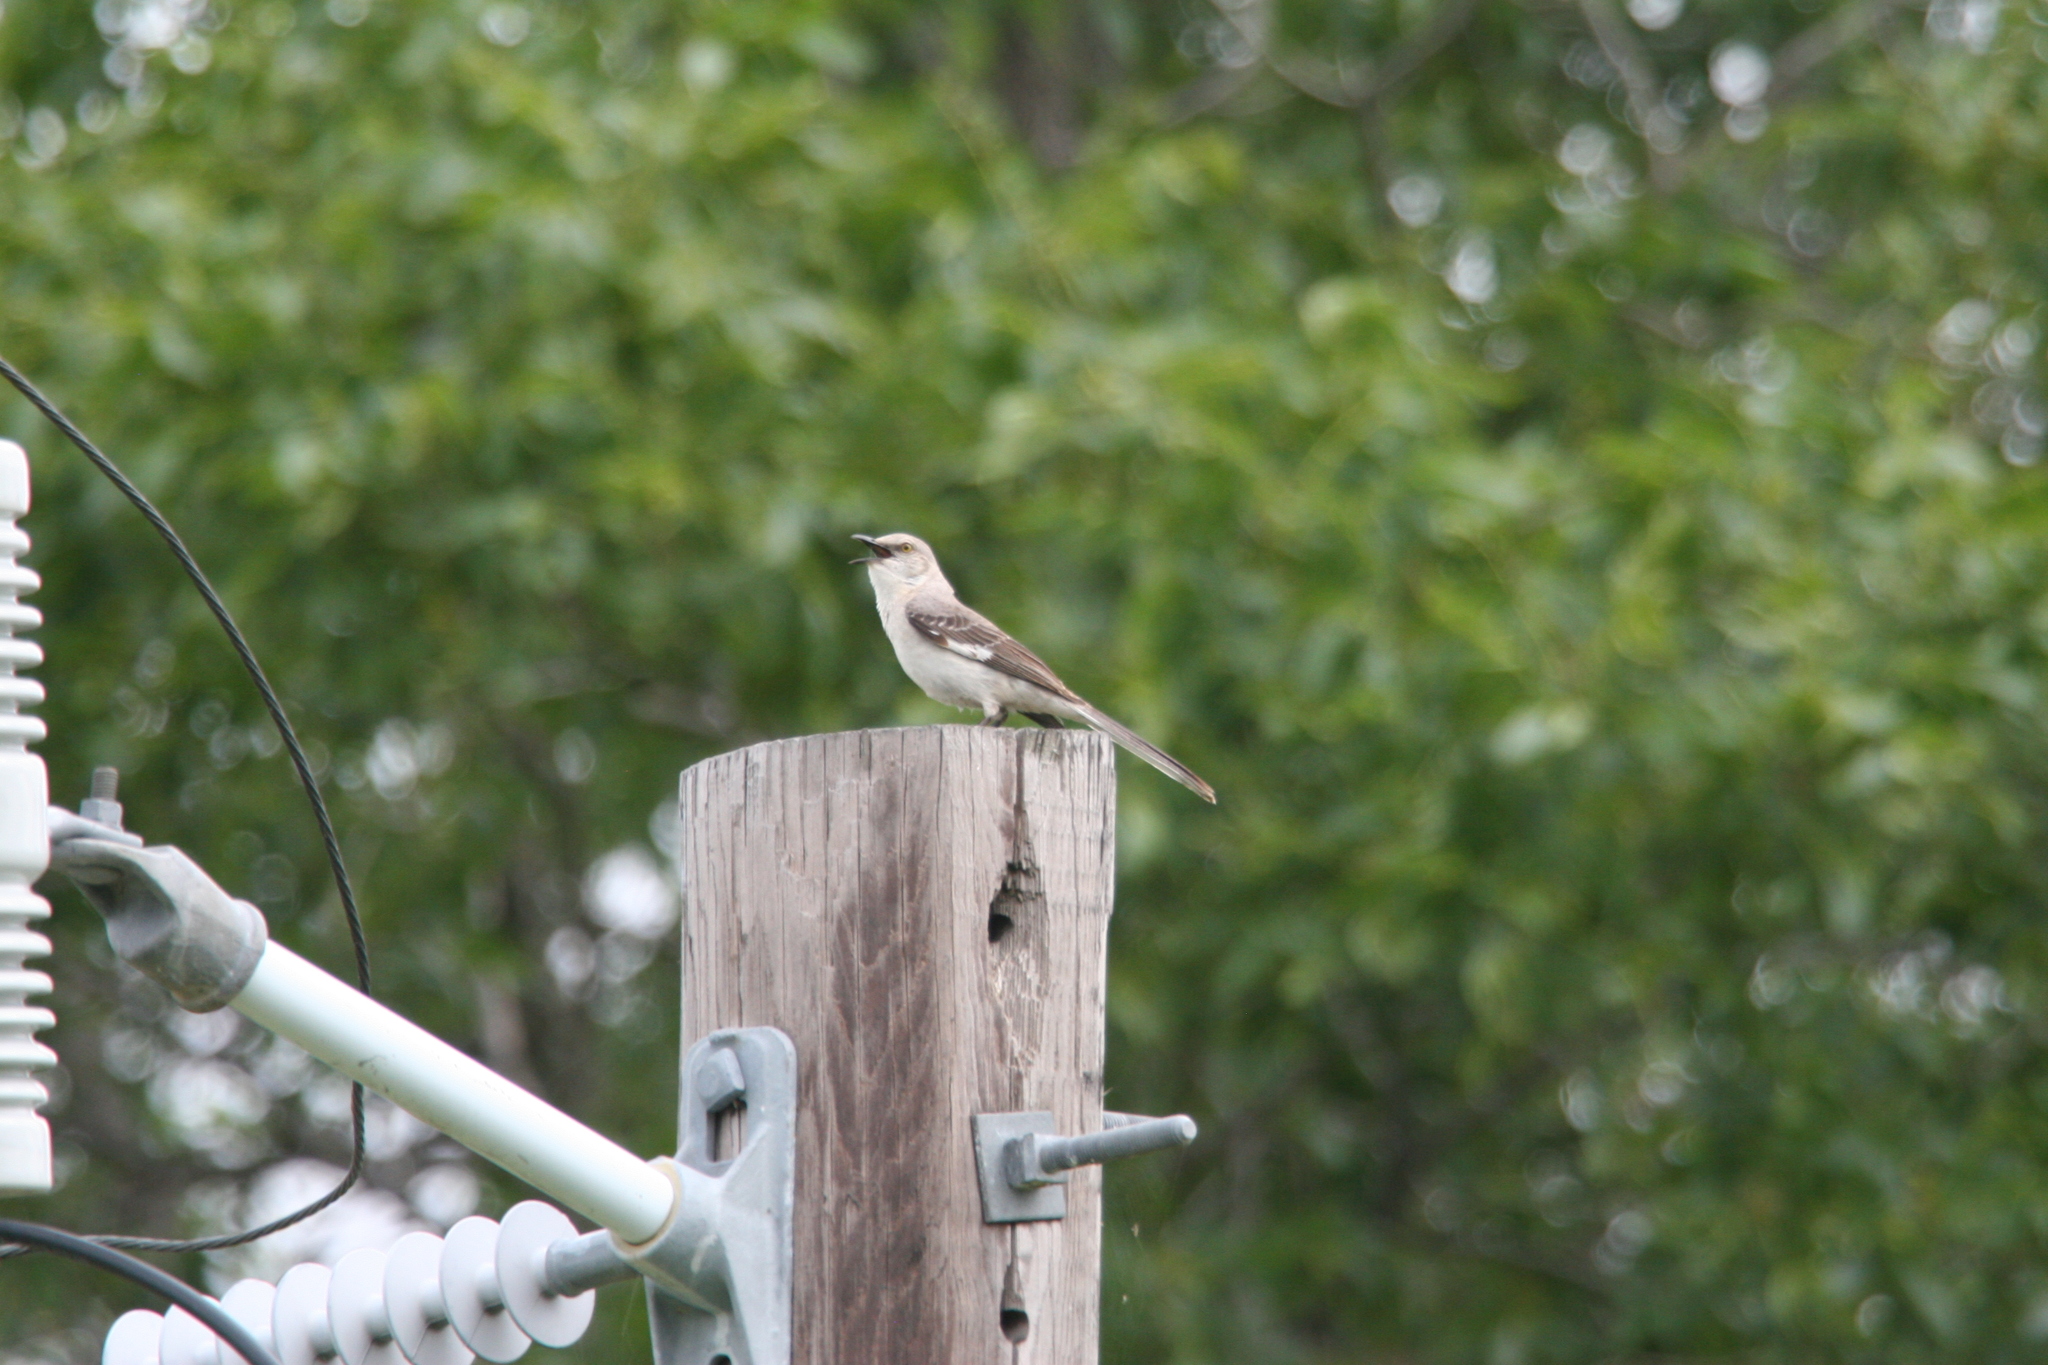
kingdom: Animalia
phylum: Chordata
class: Aves
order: Passeriformes
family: Mimidae
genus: Mimus
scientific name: Mimus polyglottos
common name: Northern mockingbird
